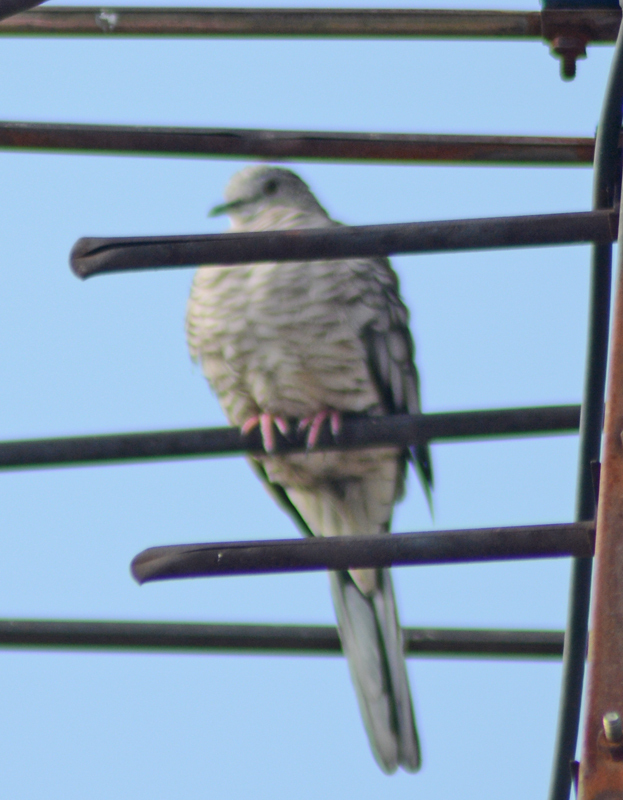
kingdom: Animalia
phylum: Chordata
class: Aves
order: Columbiformes
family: Columbidae
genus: Columbina
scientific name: Columbina inca
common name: Inca dove
